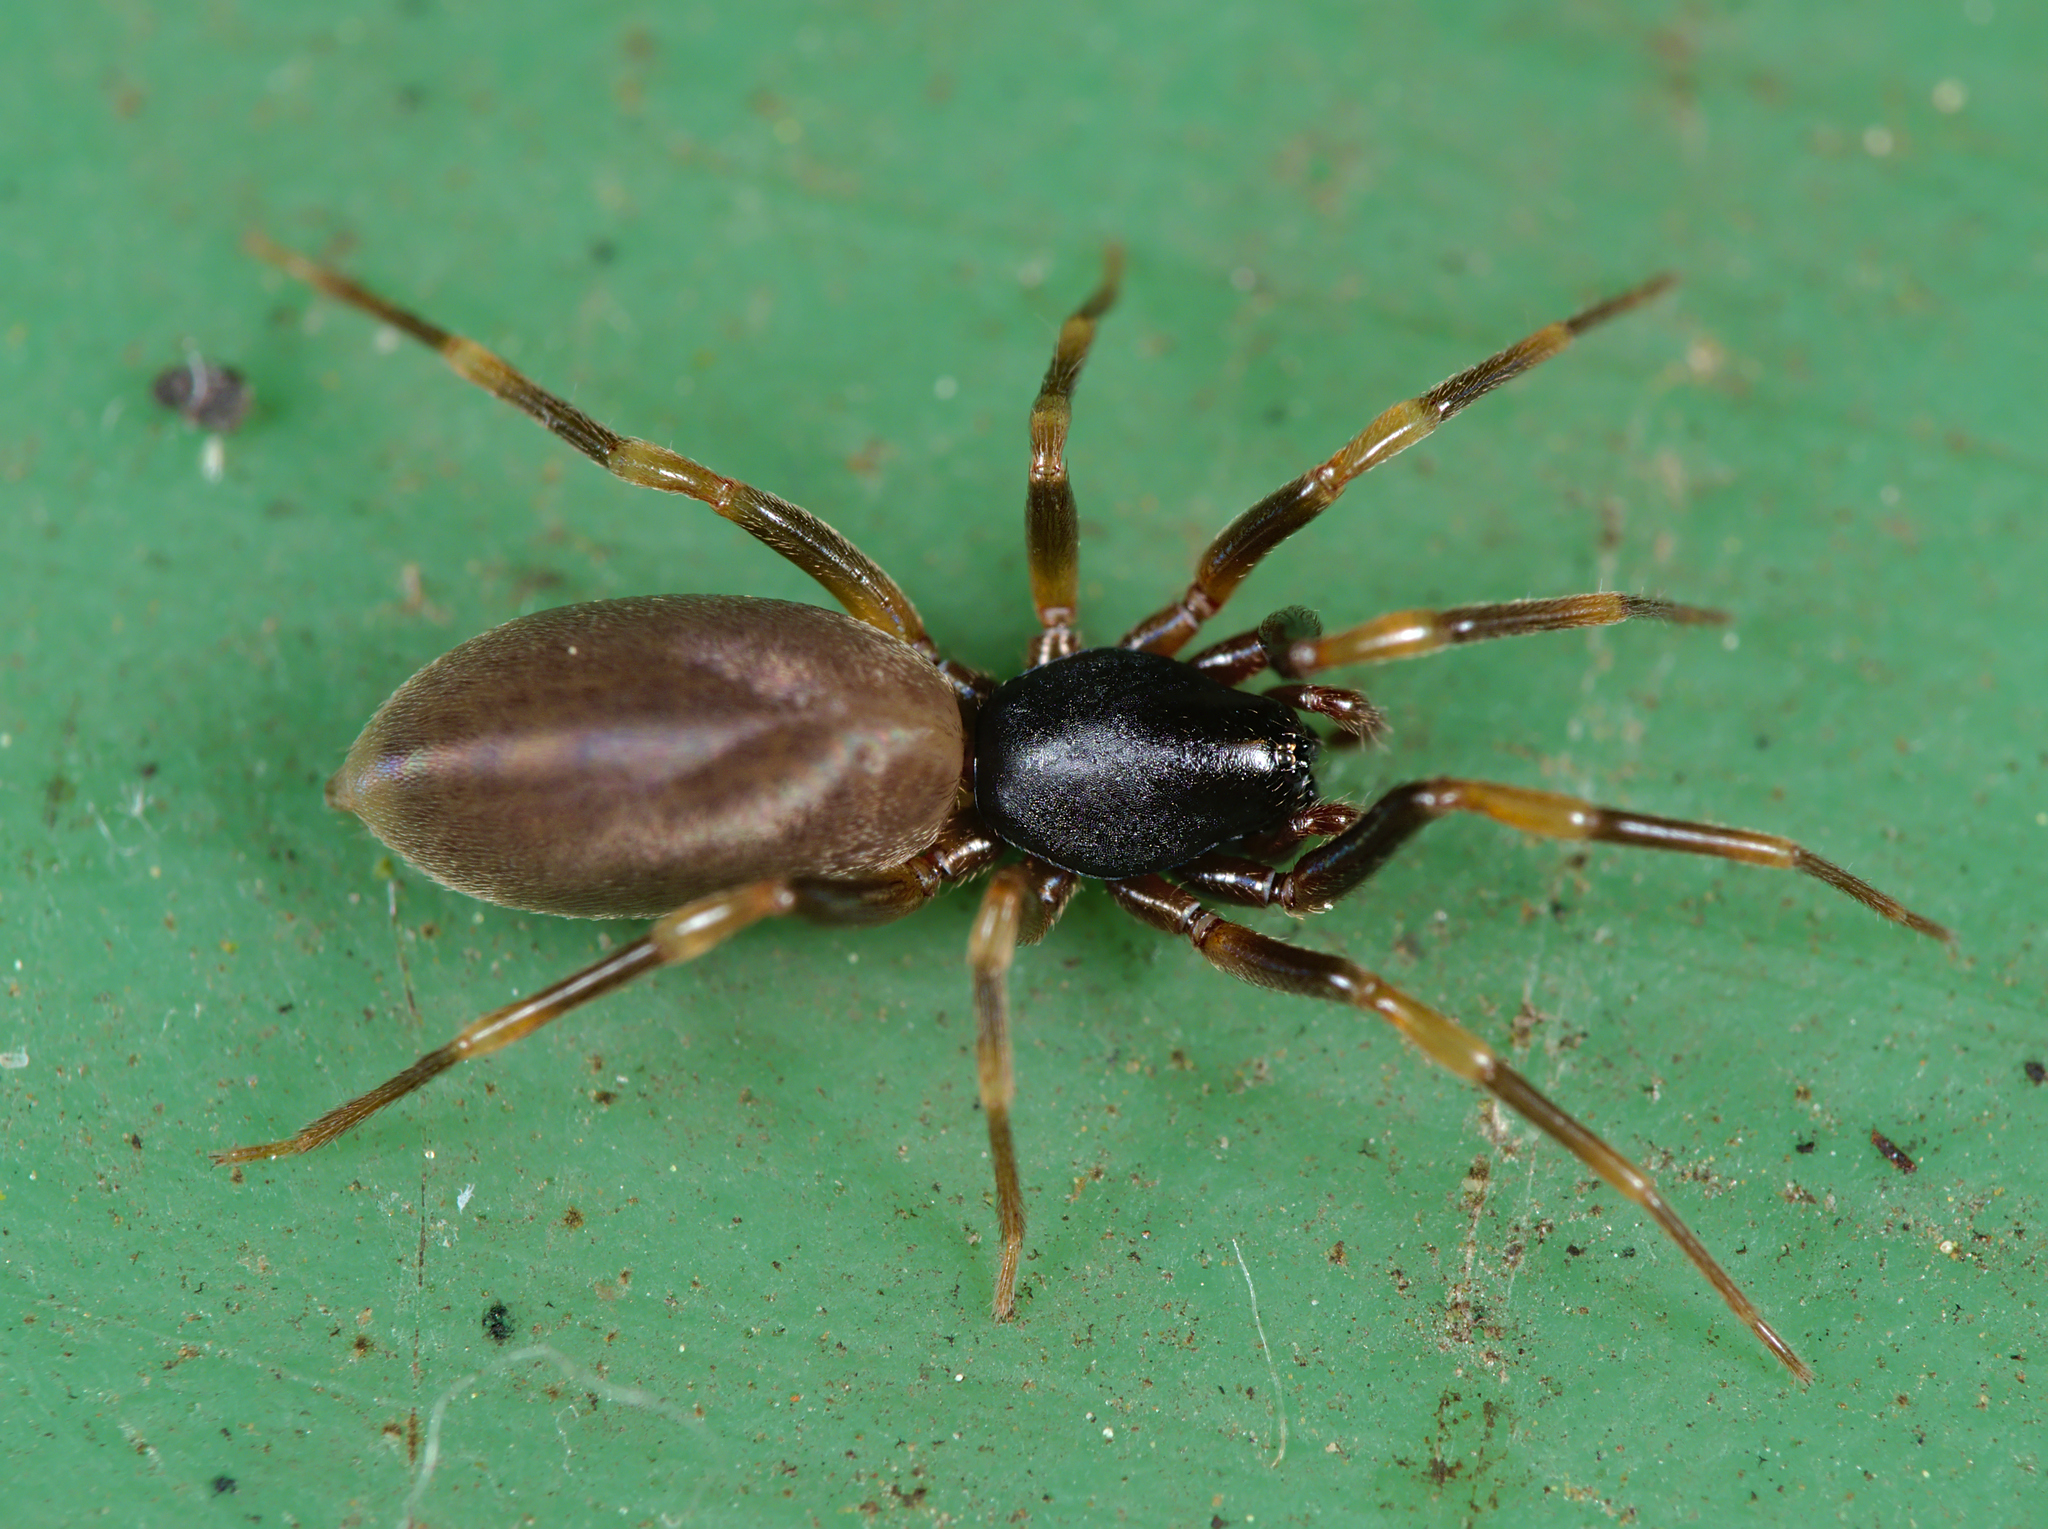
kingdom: Animalia
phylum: Arthropoda
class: Arachnida
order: Araneae
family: Dysderidae
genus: Harpactea
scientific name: Harpactea hombergi
